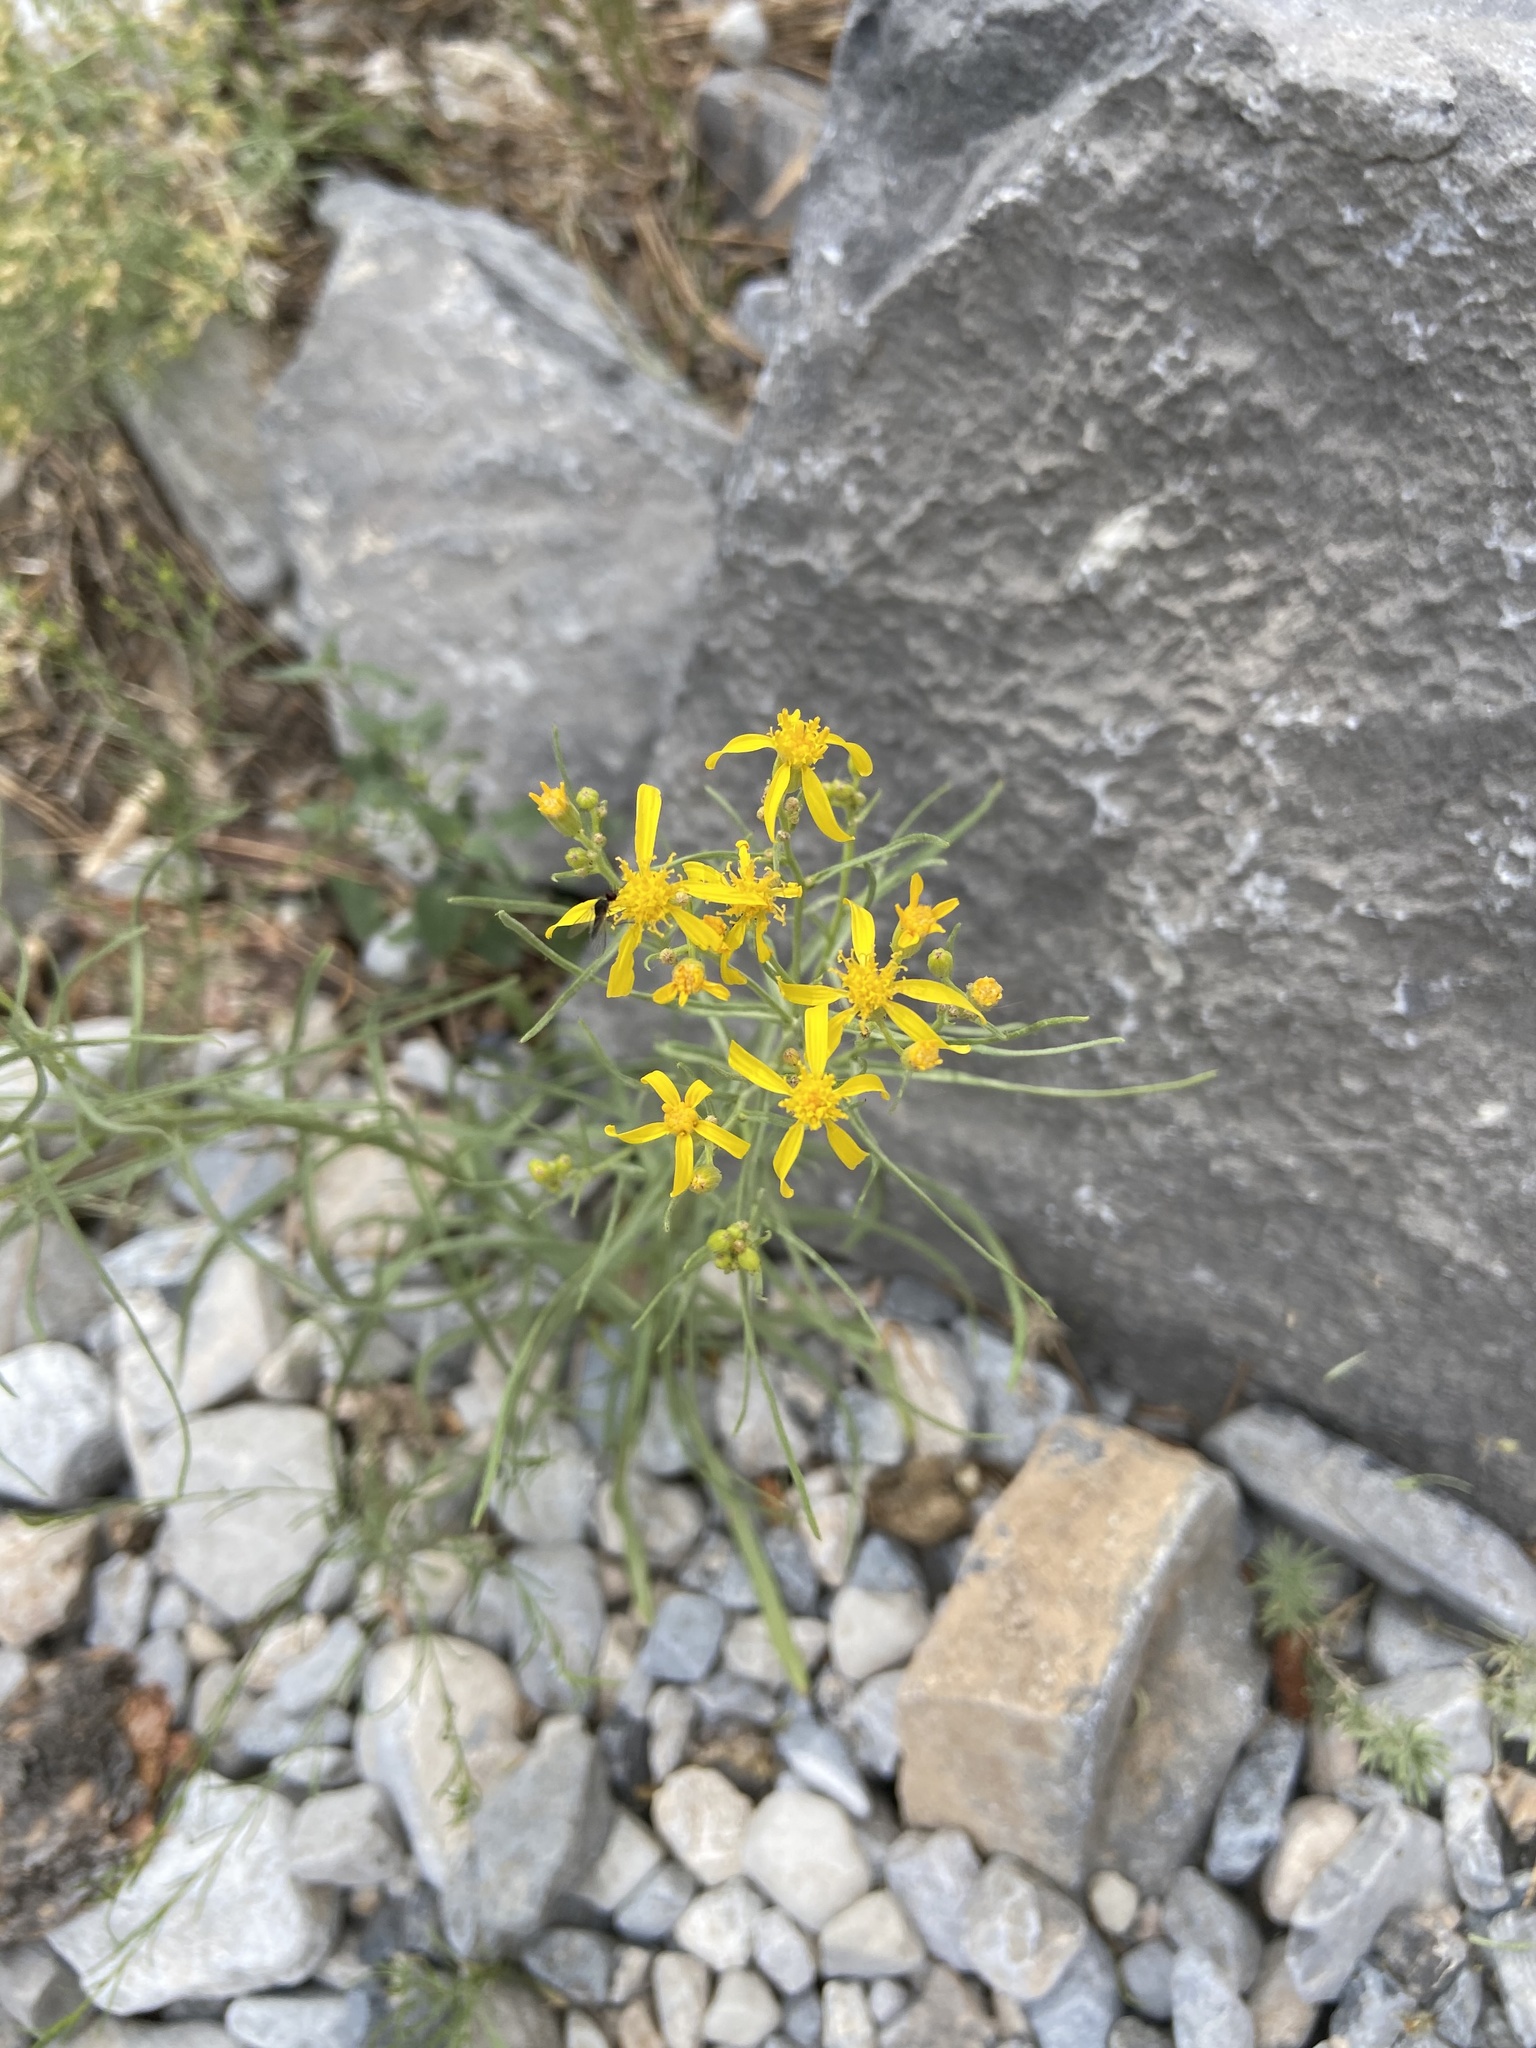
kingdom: Plantae
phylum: Tracheophyta
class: Magnoliopsida
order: Asterales
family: Asteraceae
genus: Senecio
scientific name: Senecio spartioides
